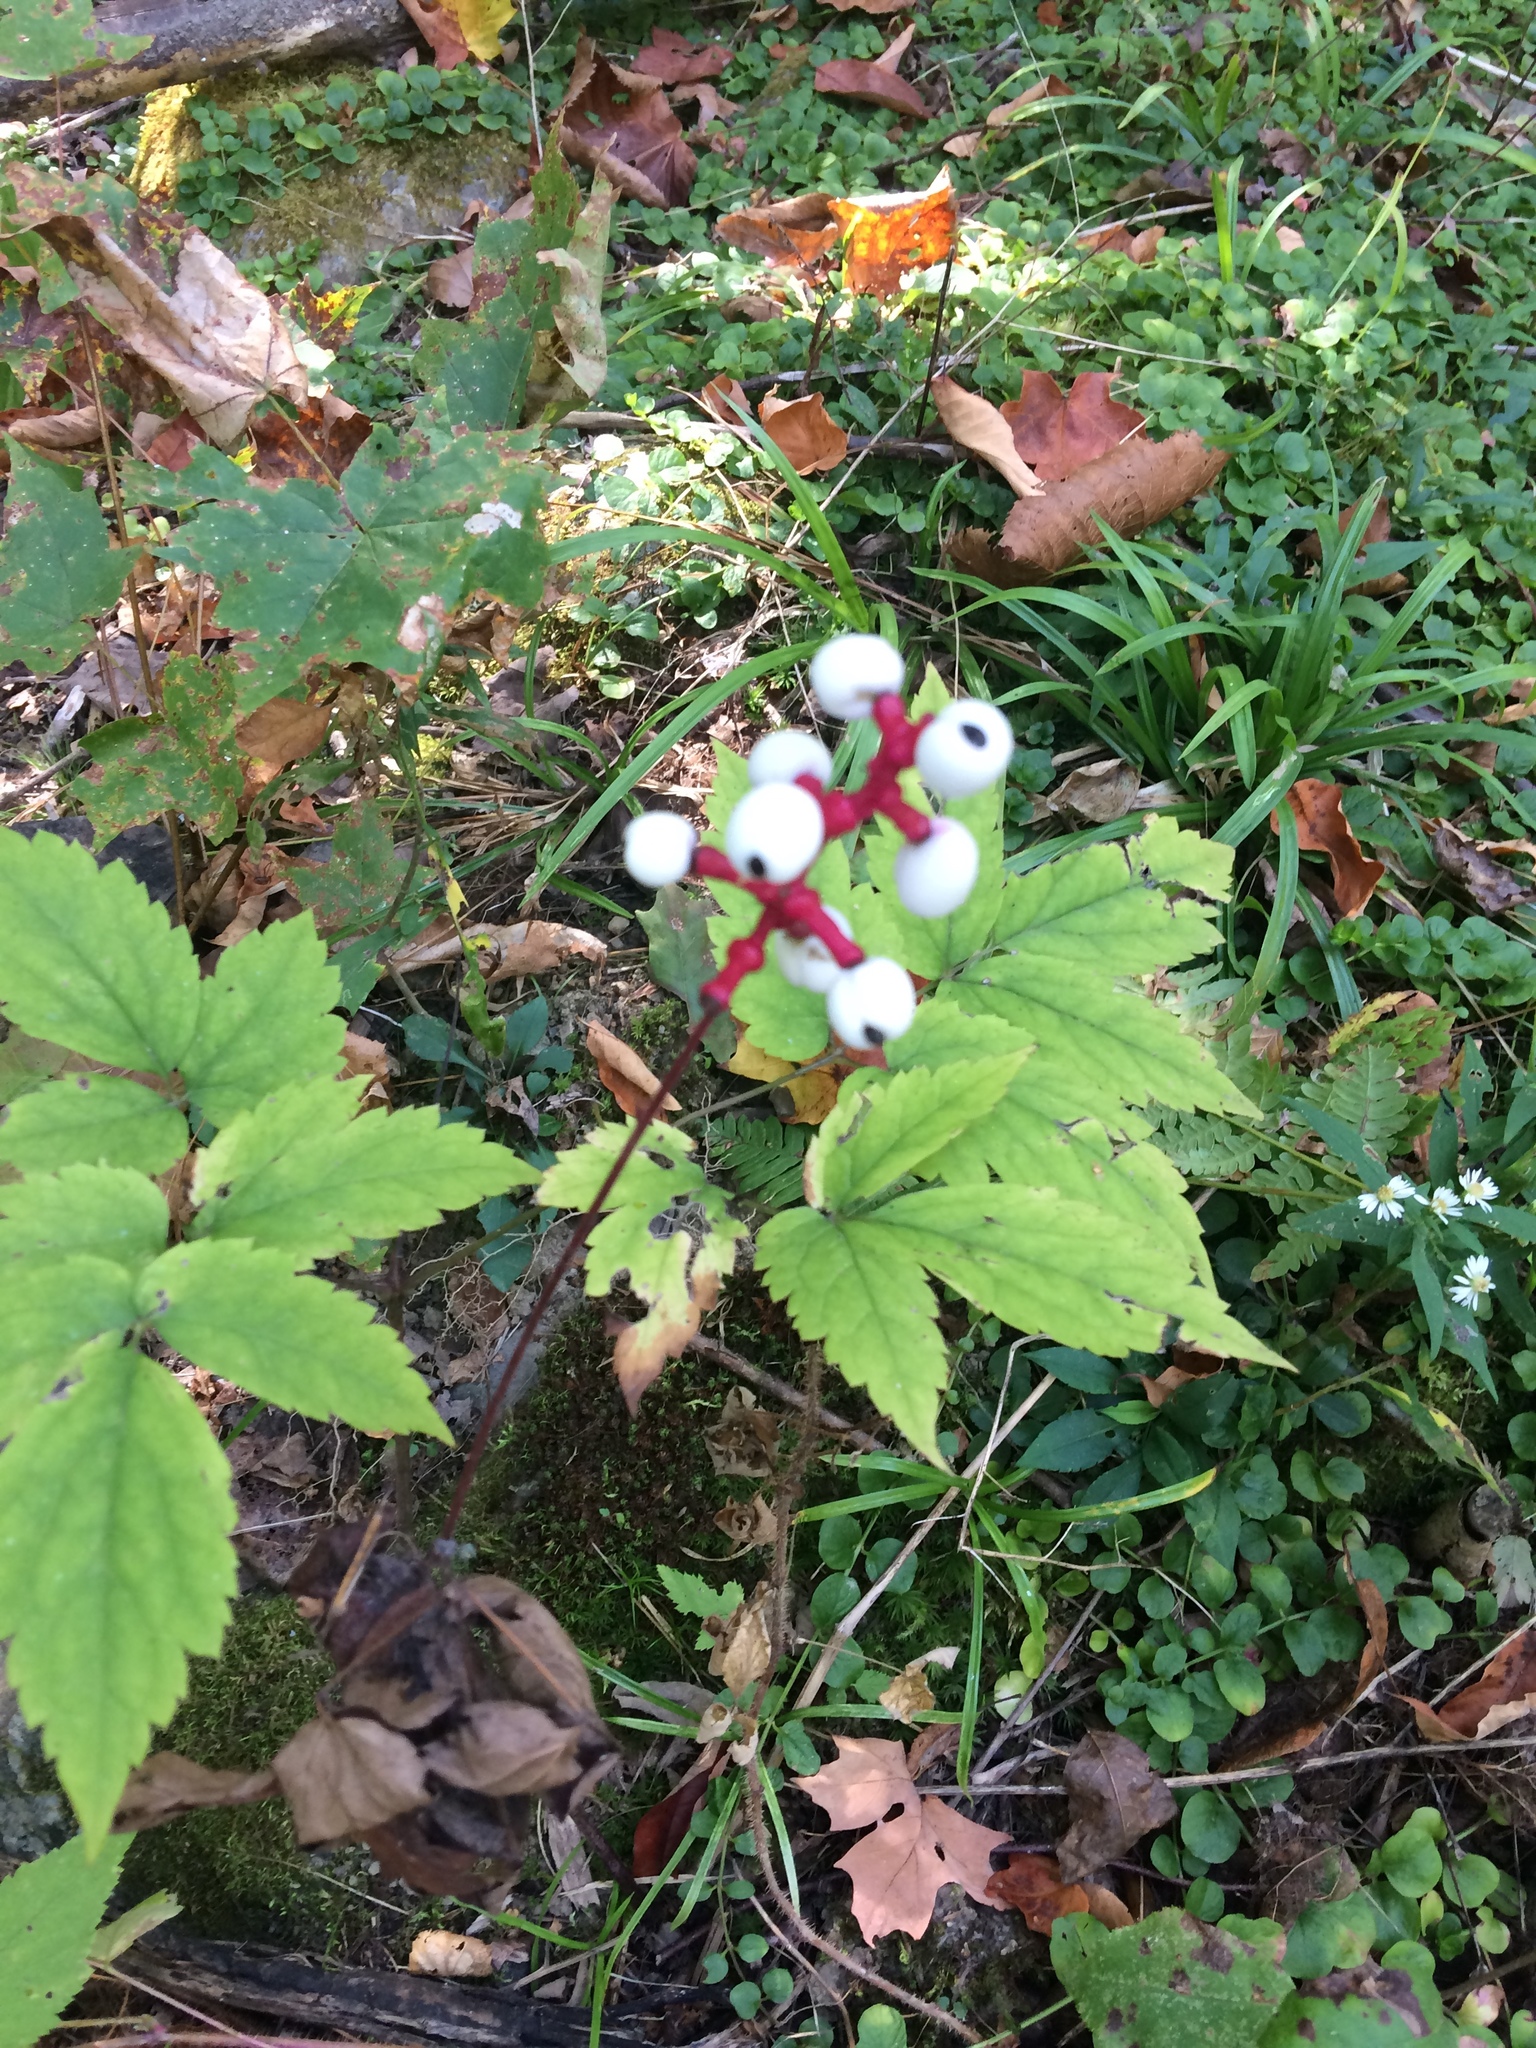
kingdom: Plantae
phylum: Tracheophyta
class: Magnoliopsida
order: Ranunculales
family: Ranunculaceae
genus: Actaea
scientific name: Actaea pachypoda
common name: Doll's-eyes
